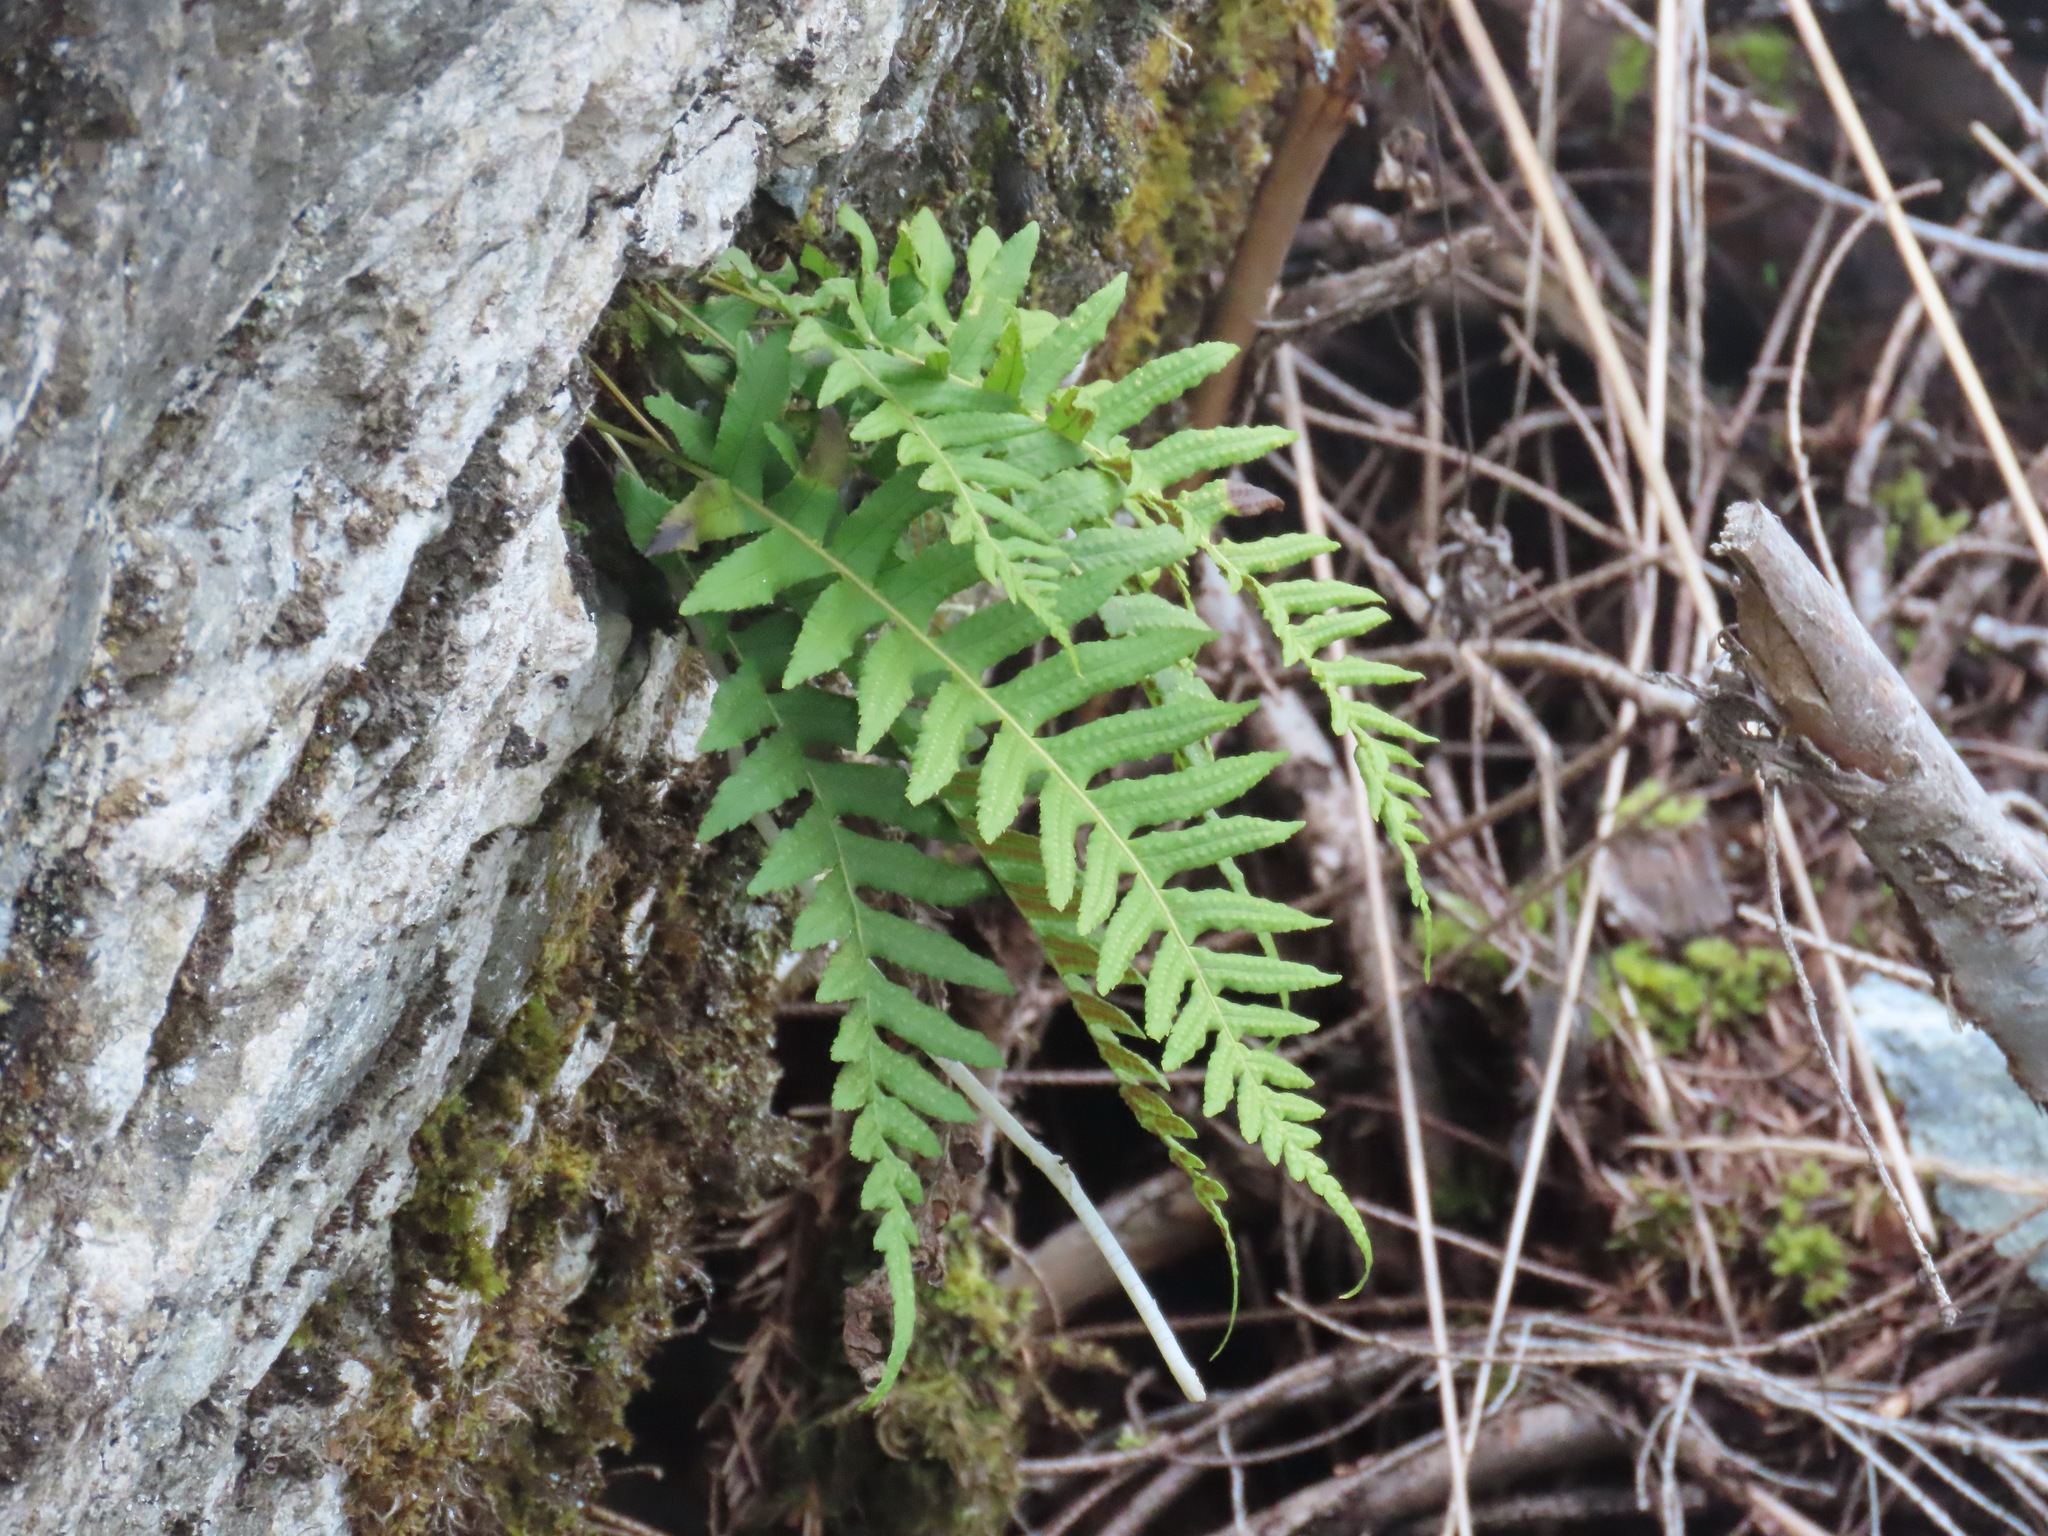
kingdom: Plantae
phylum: Tracheophyta
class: Polypodiopsida
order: Polypodiales
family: Polypodiaceae
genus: Polypodium
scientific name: Polypodium glycyrrhiza
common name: Licorice fern
